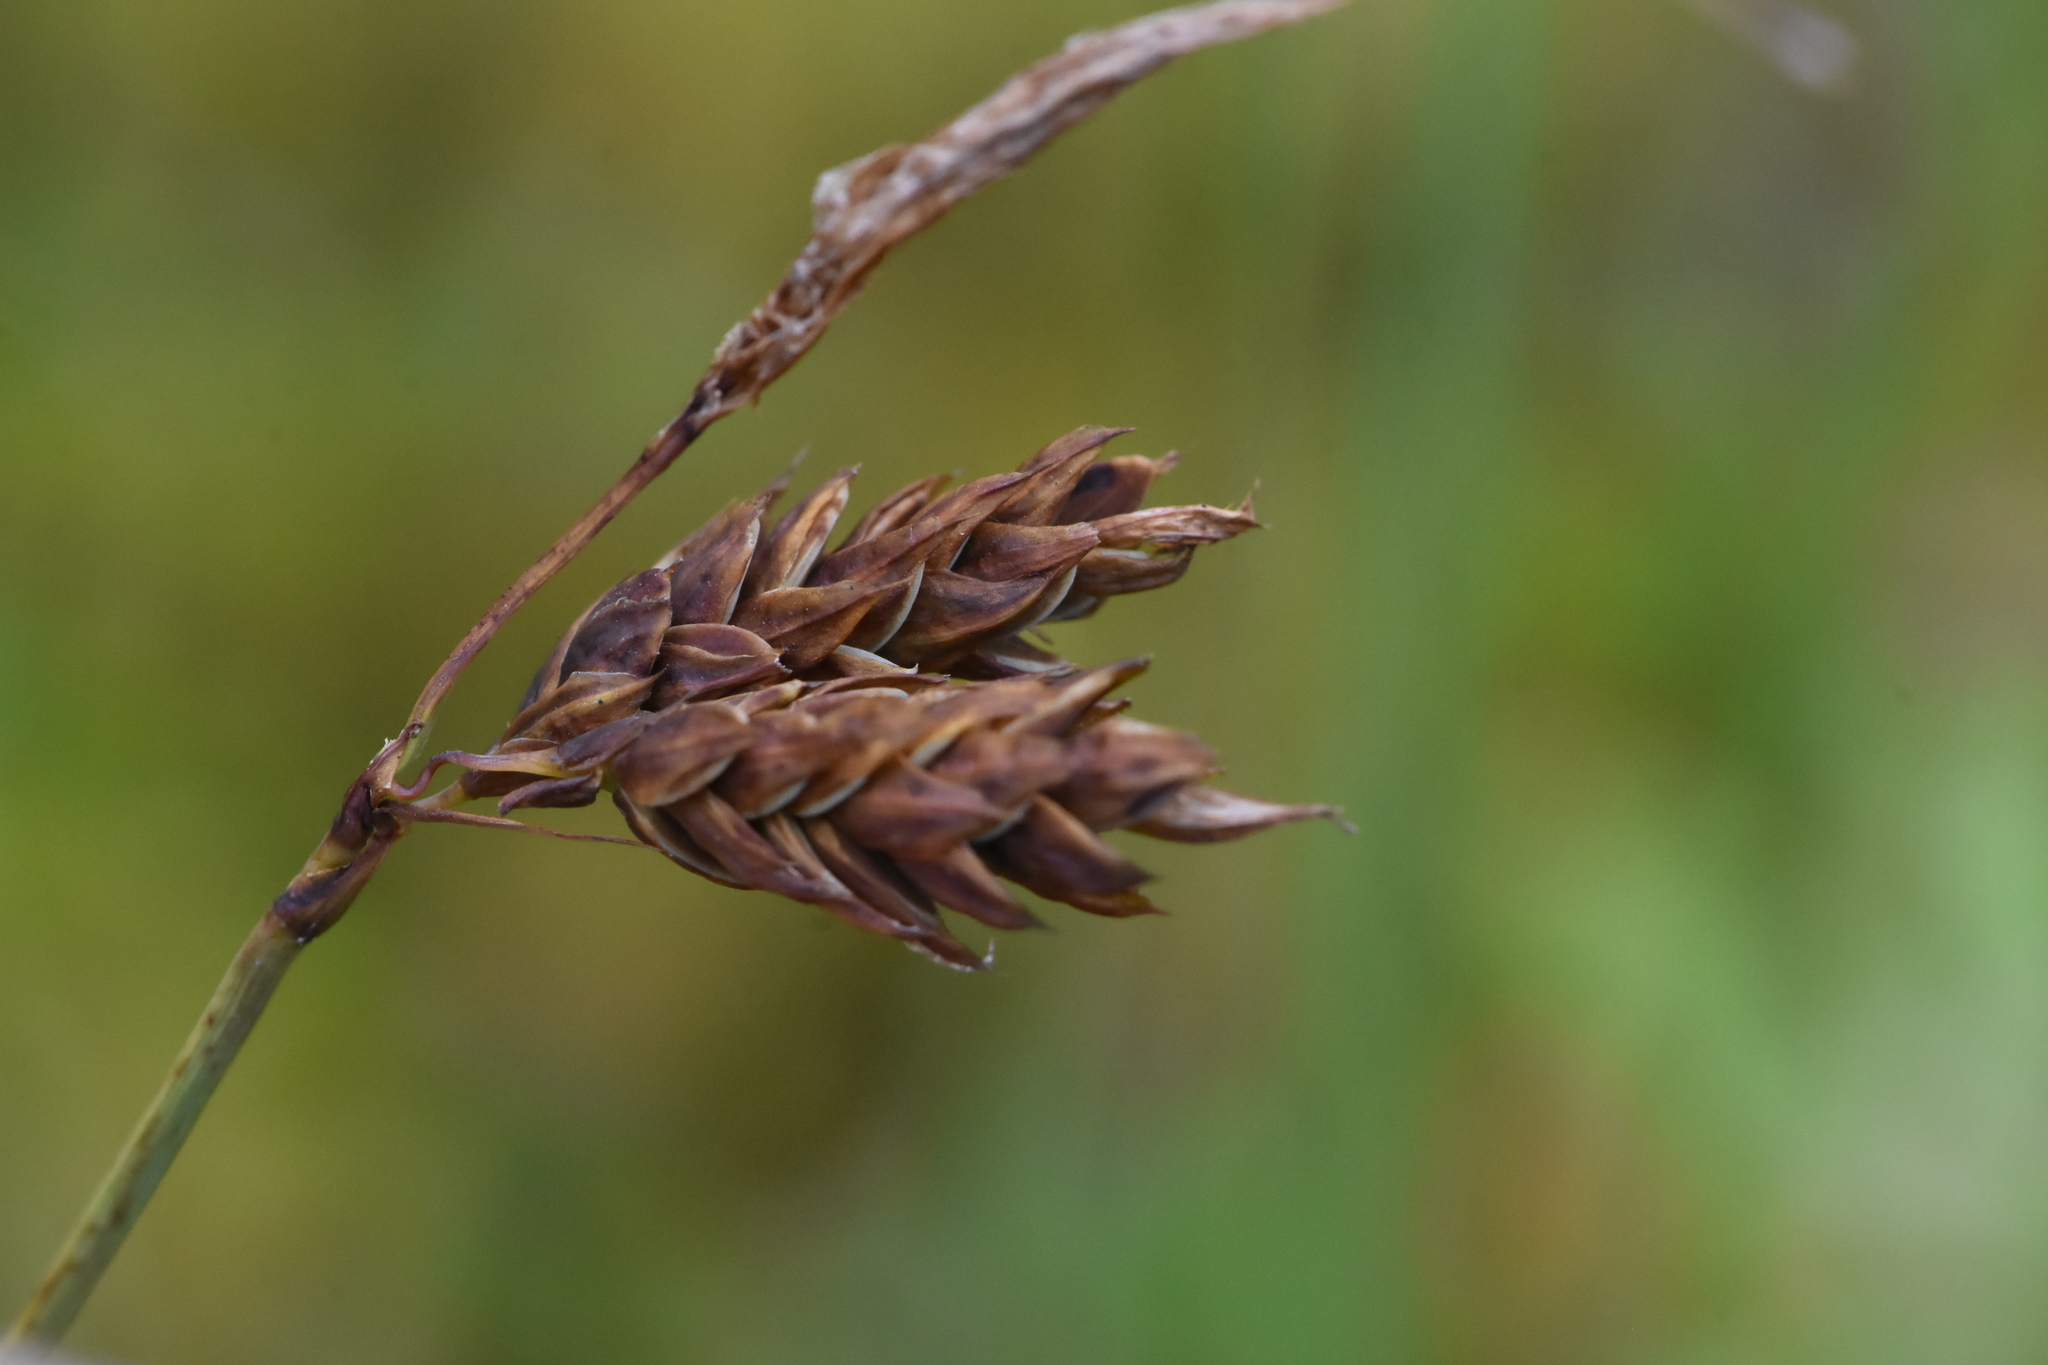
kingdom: Plantae
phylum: Tracheophyta
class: Liliopsida
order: Poales
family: Cyperaceae
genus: Carex
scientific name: Carex limosa
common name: Bog sedge
